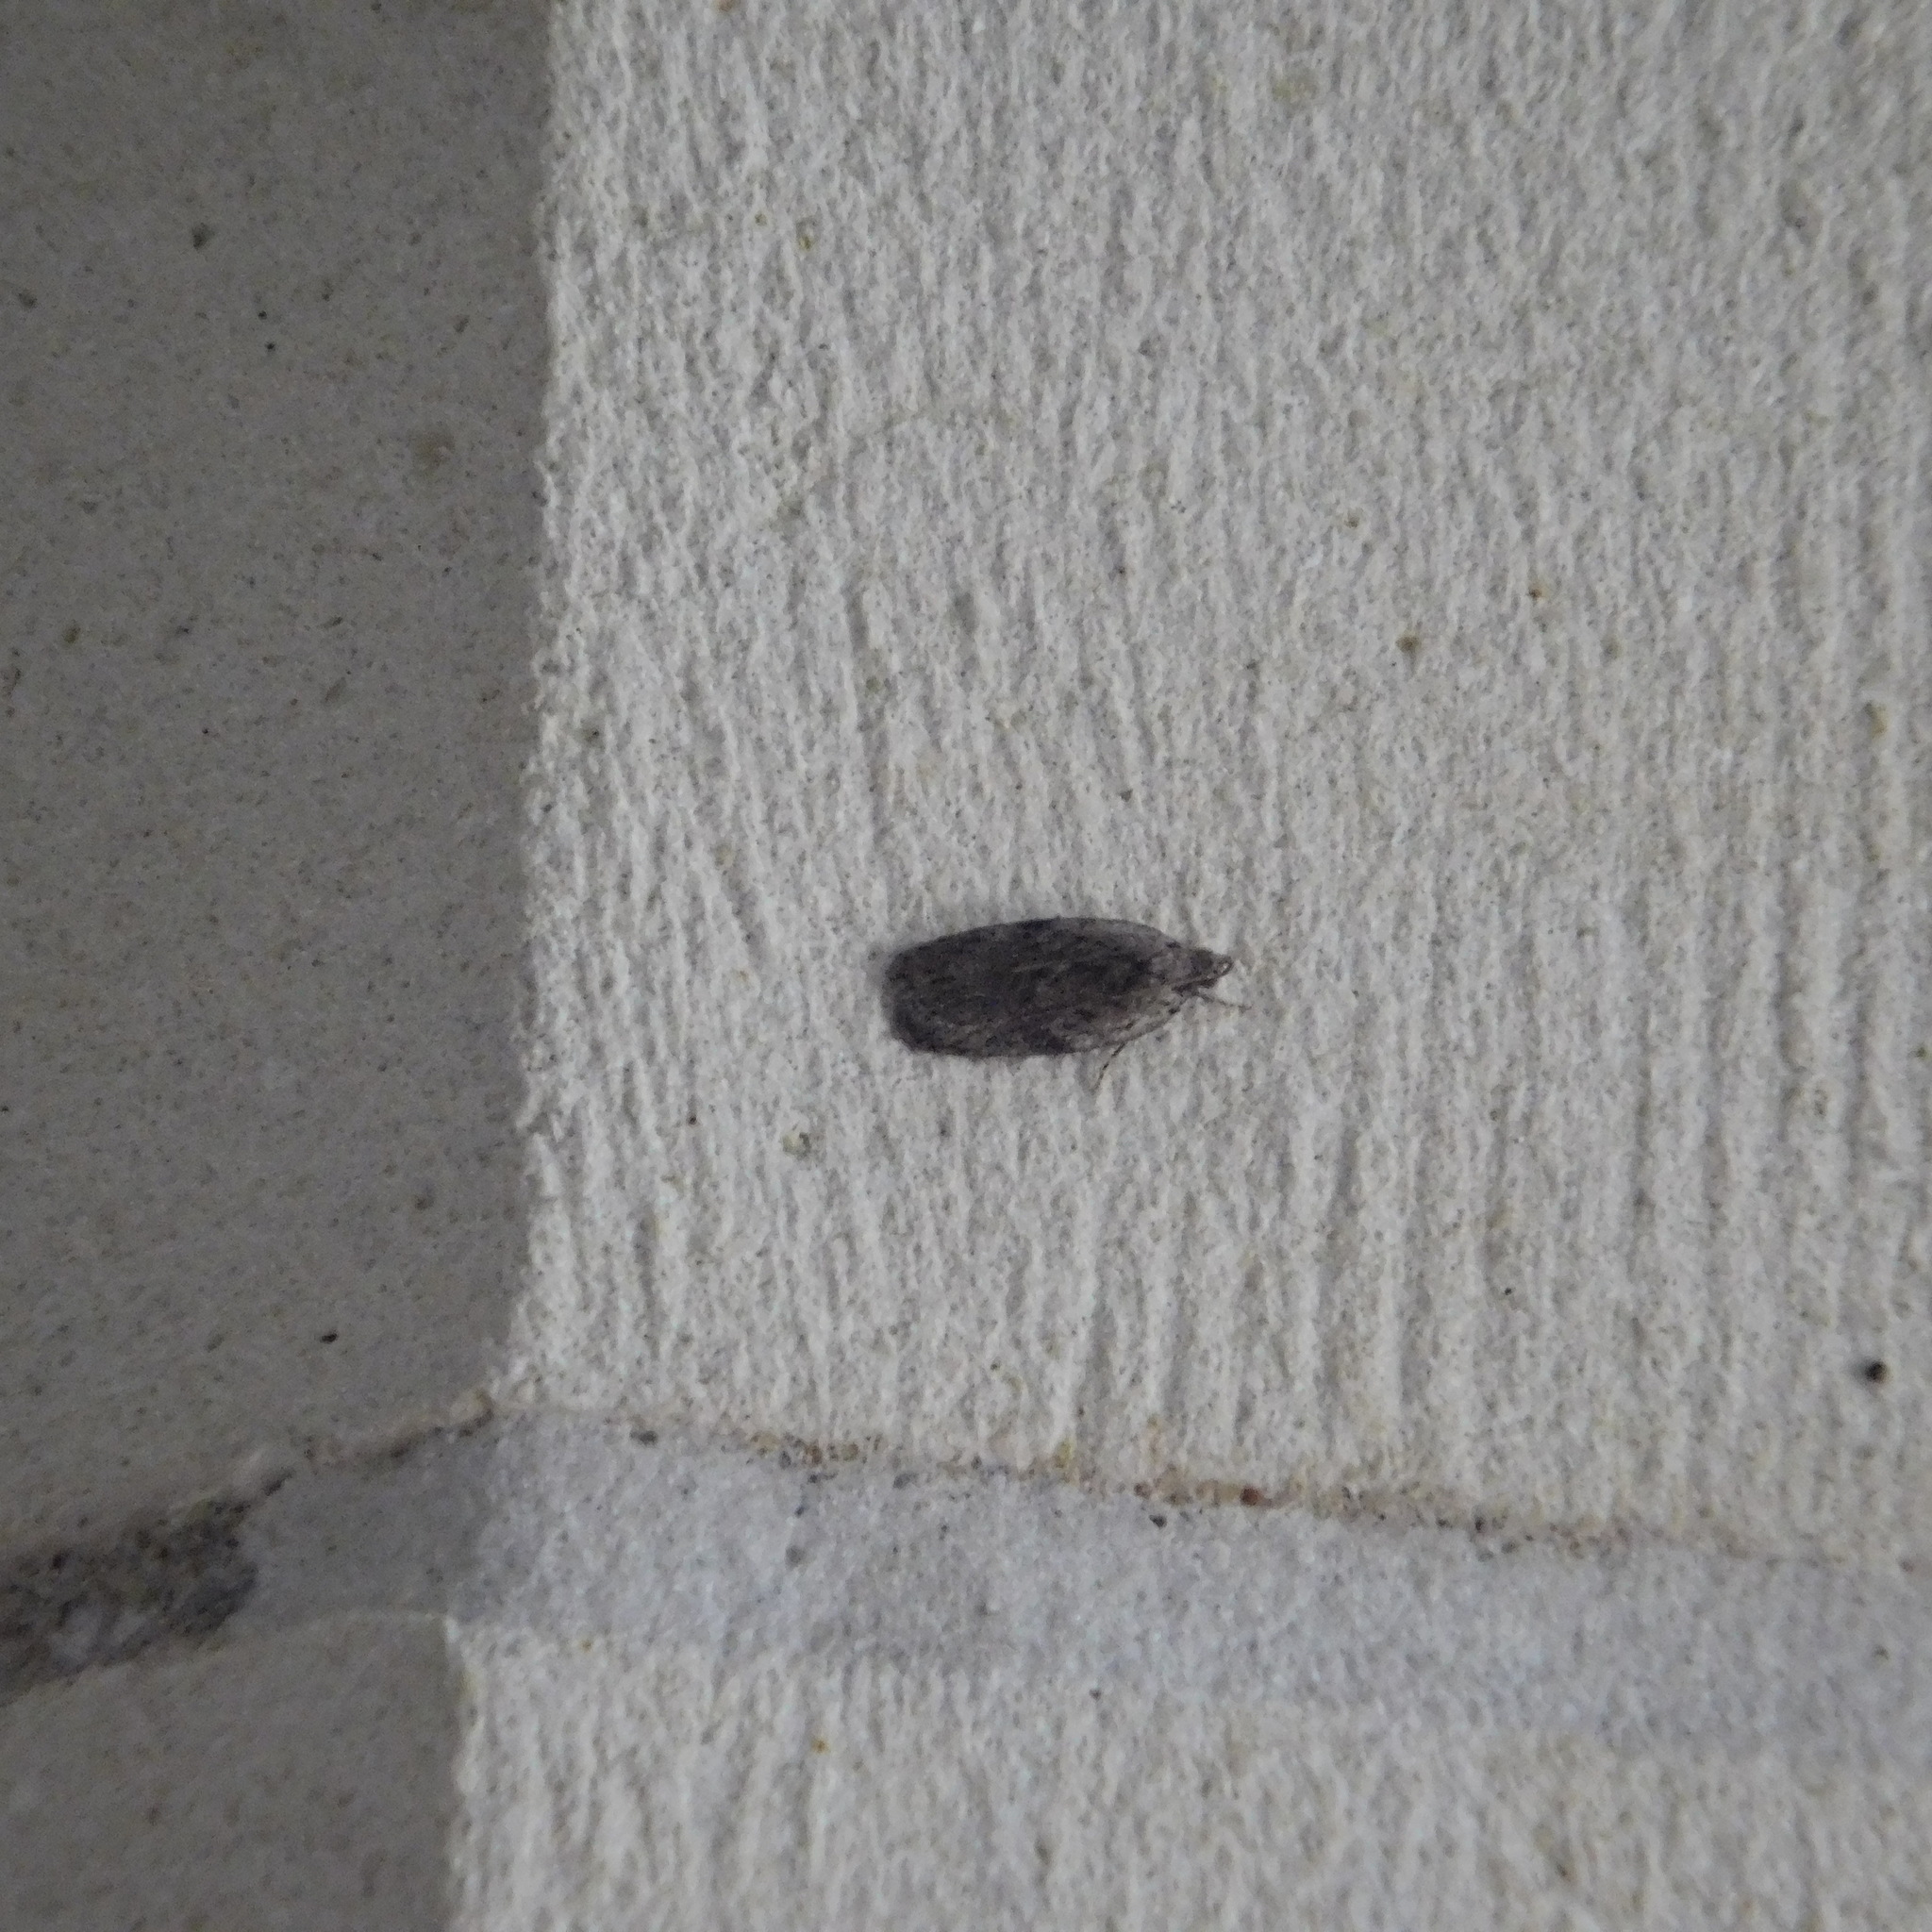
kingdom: Animalia
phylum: Arthropoda
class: Insecta
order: Lepidoptera
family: Depressariidae
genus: Phaeosaces
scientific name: Phaeosaces compsotypa
